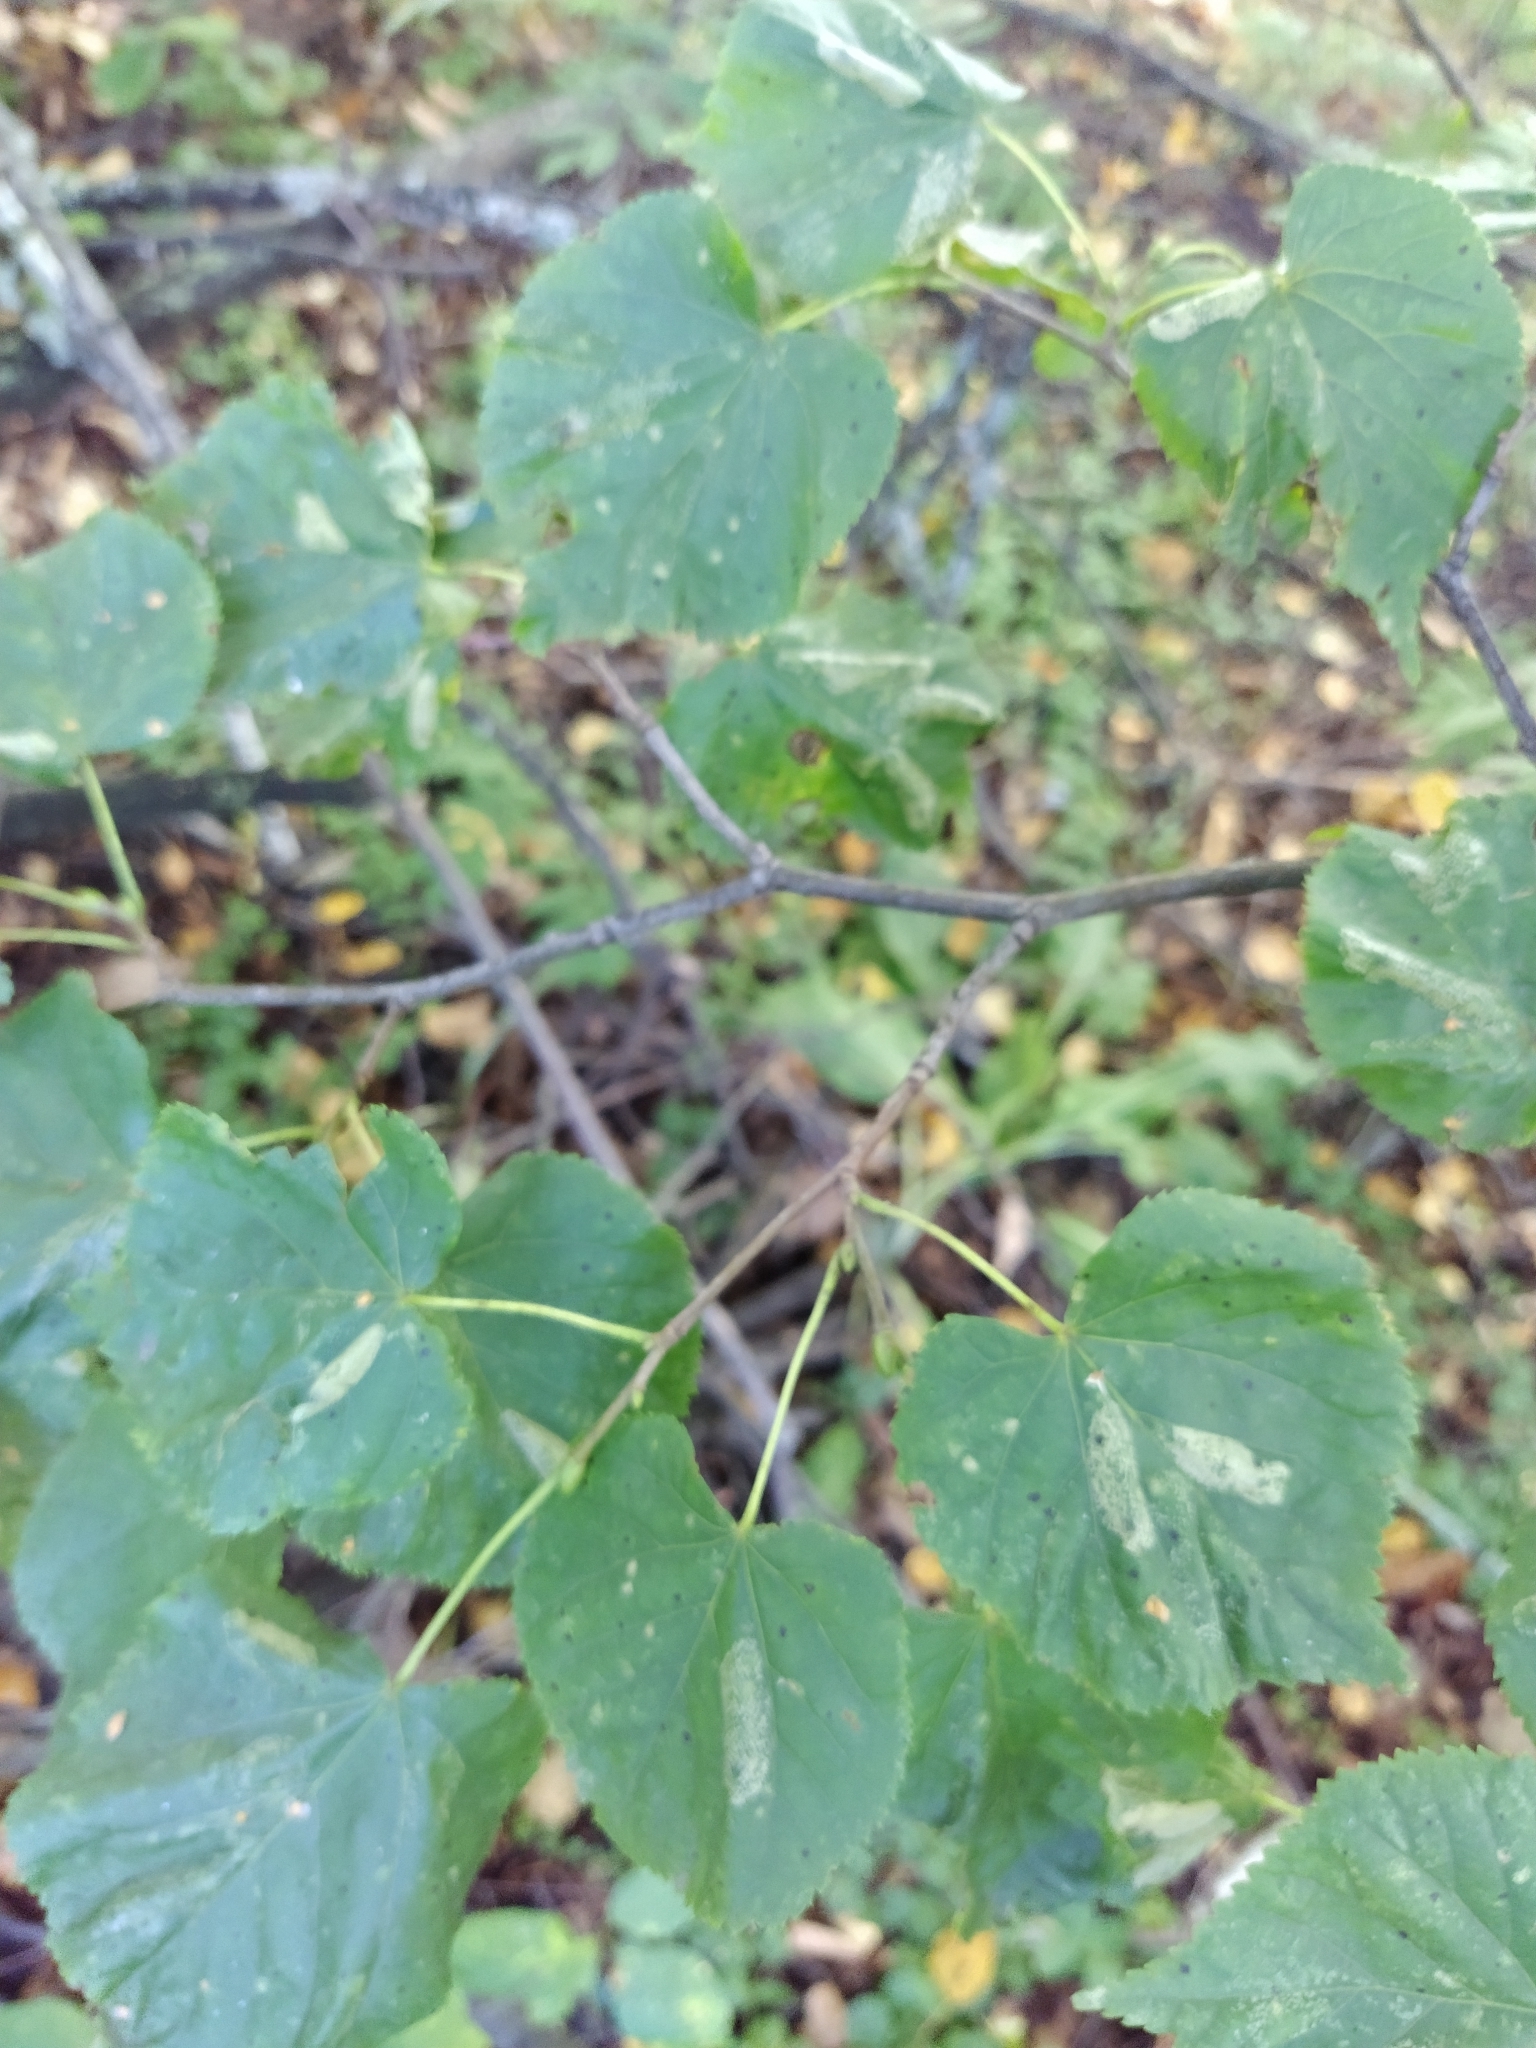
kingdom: Plantae
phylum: Tracheophyta
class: Magnoliopsida
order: Malvales
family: Malvaceae
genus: Tilia
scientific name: Tilia cordata
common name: Small-leaved lime
